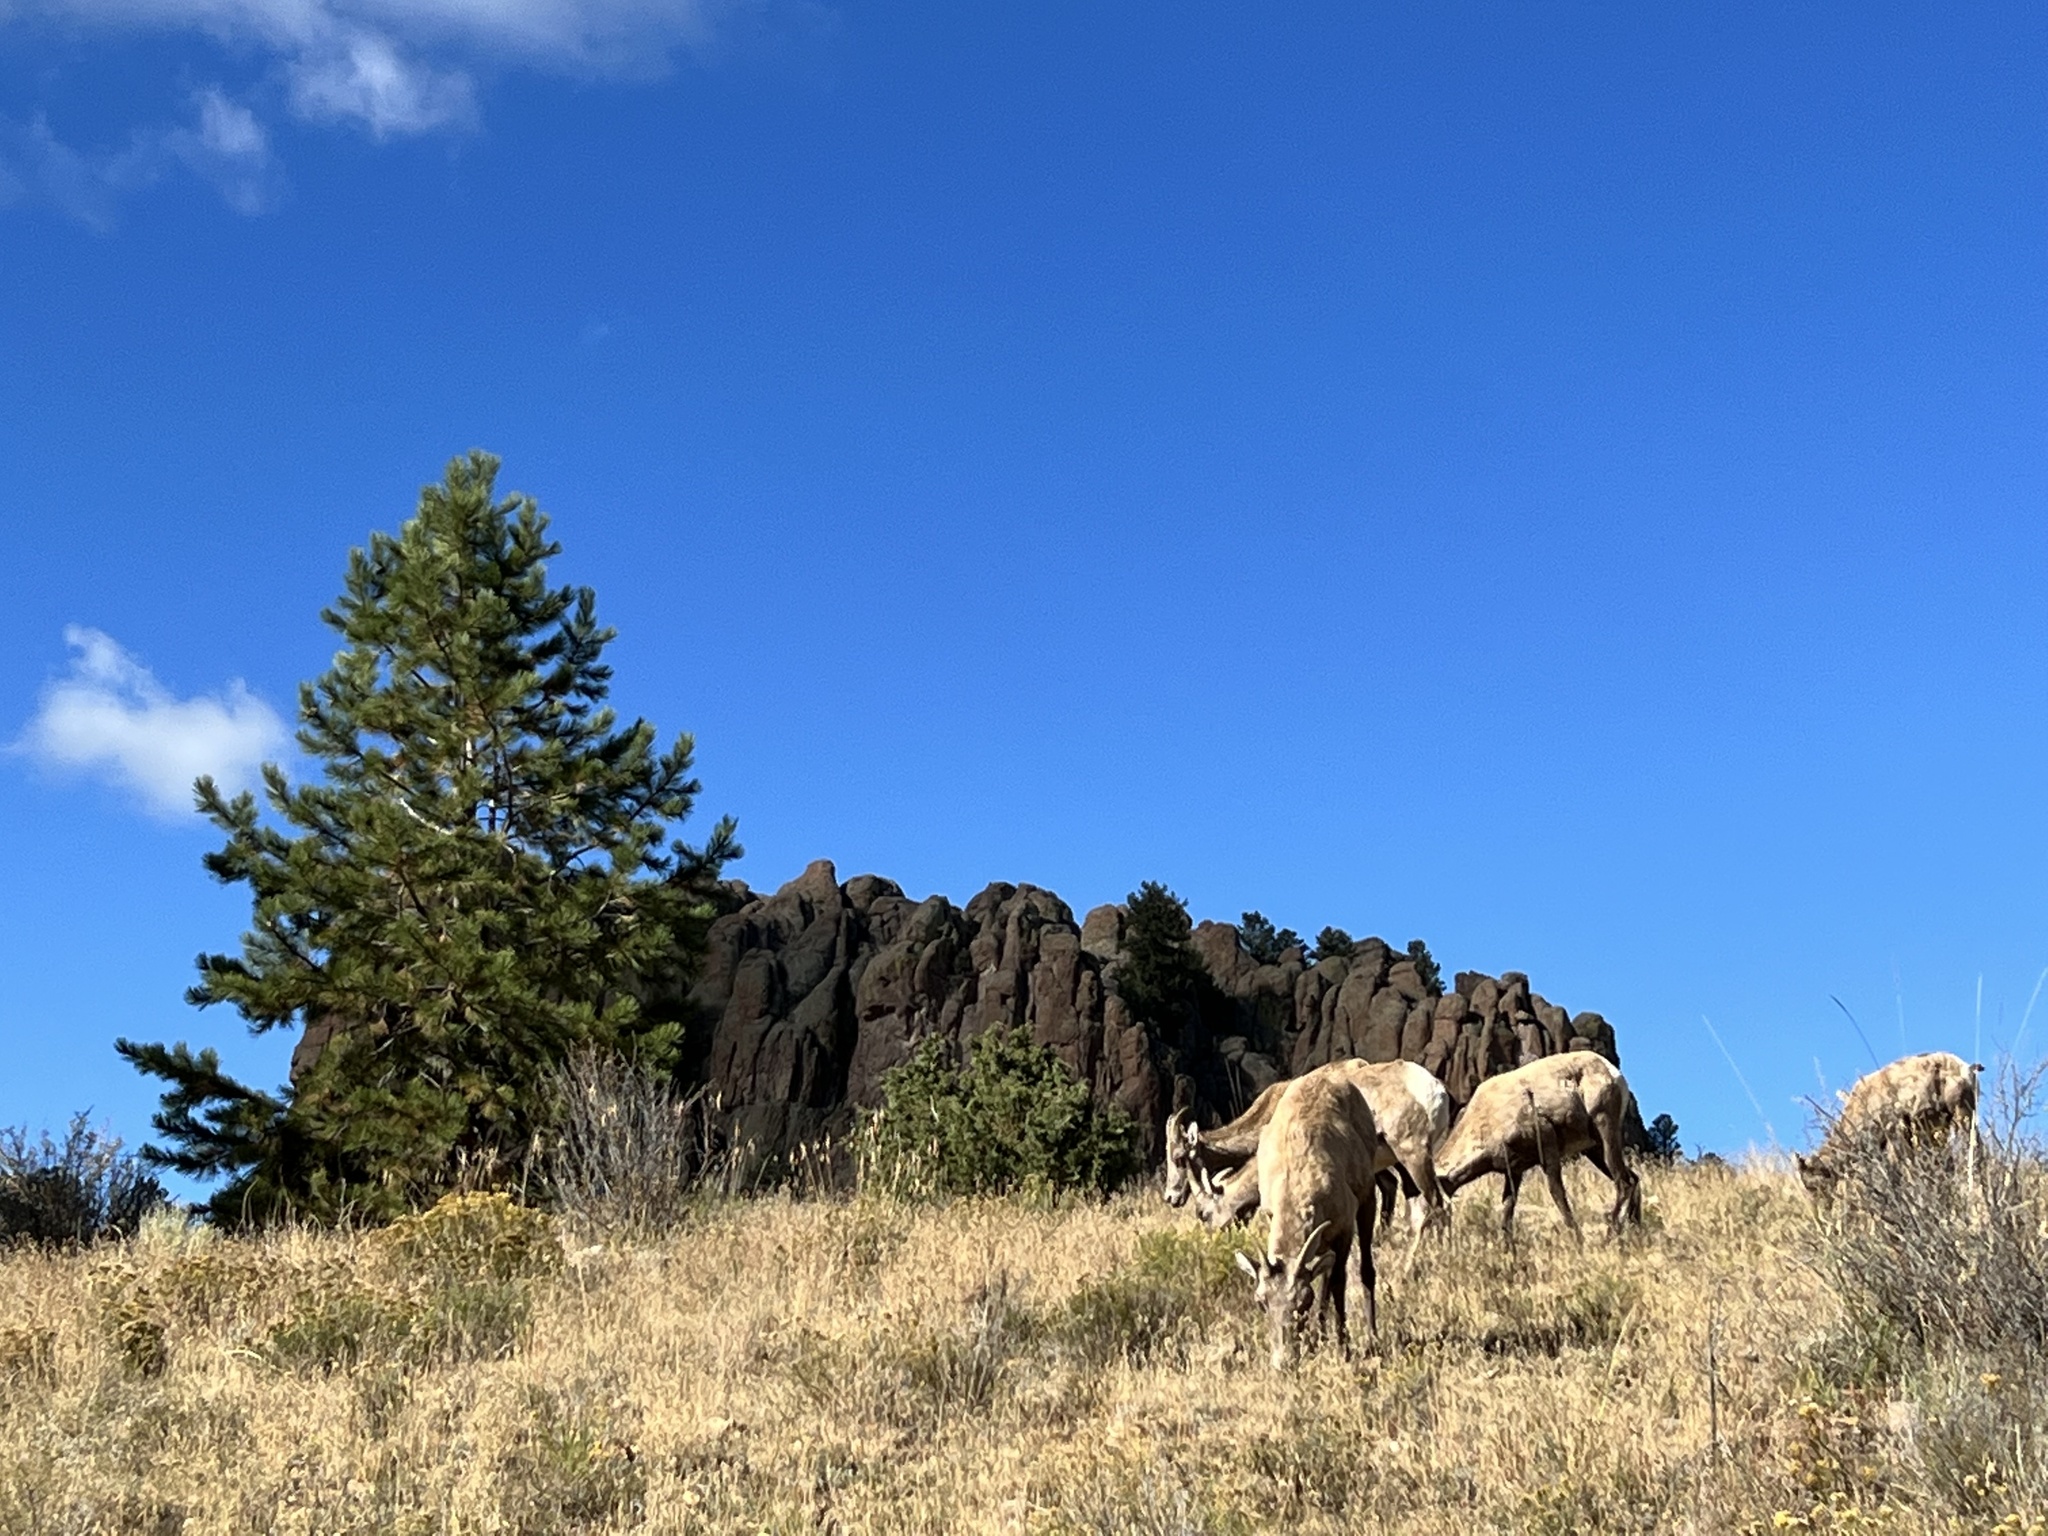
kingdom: Animalia
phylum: Chordata
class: Mammalia
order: Artiodactyla
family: Bovidae
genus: Ovis
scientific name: Ovis canadensis
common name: Bighorn sheep
